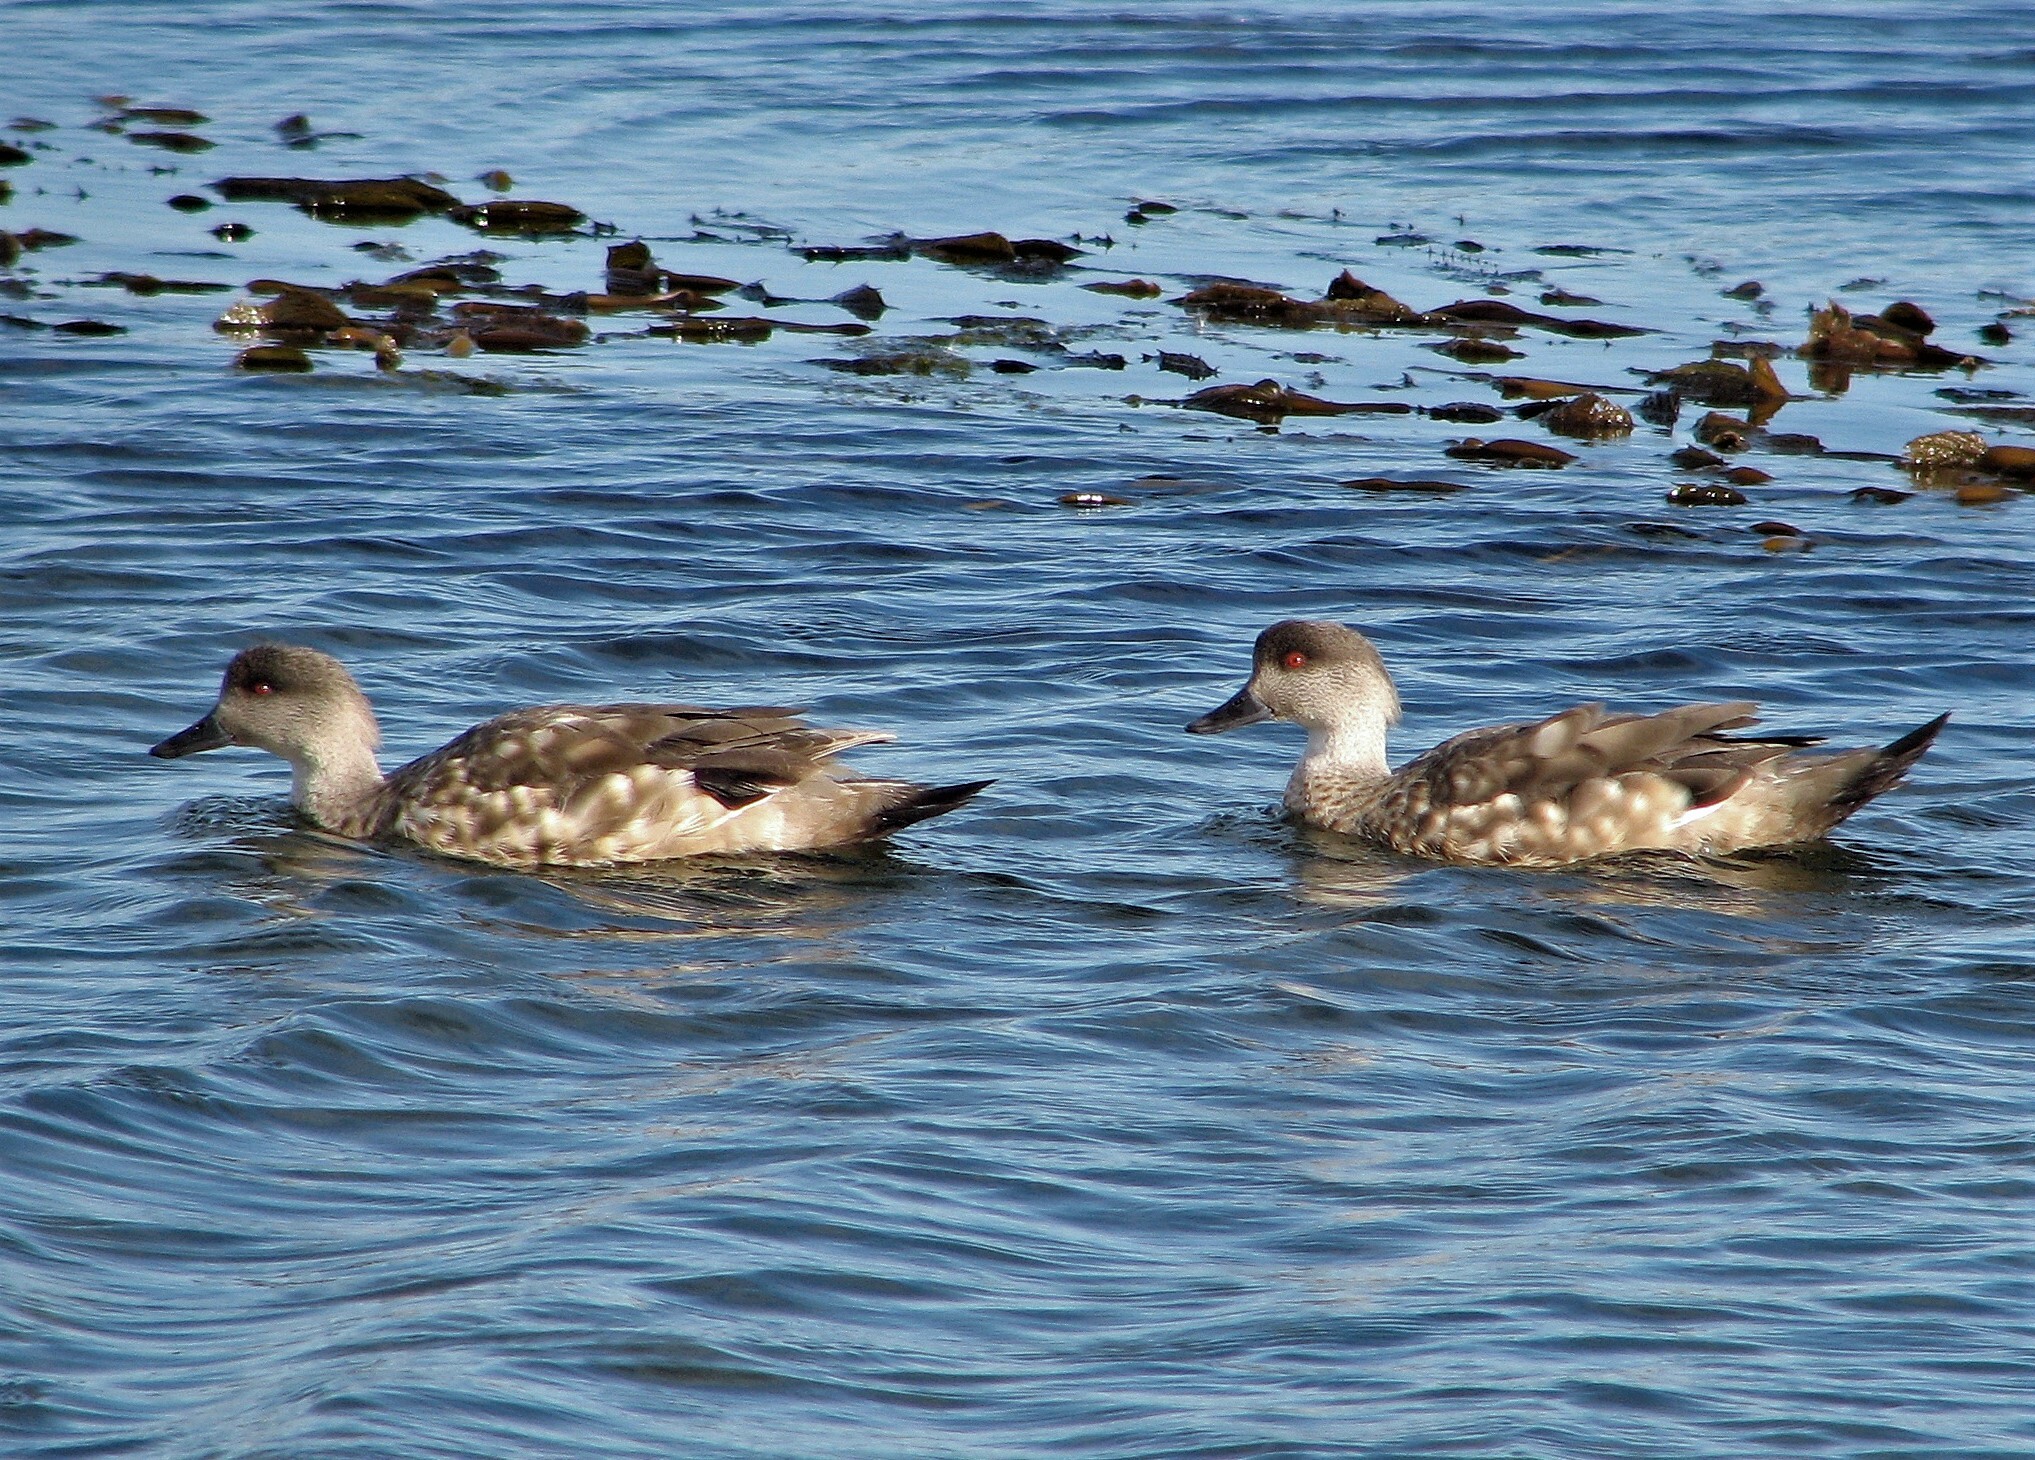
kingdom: Animalia
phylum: Chordata
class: Aves
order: Anseriformes
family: Anatidae
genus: Lophonetta
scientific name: Lophonetta specularioides
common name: Crested duck
